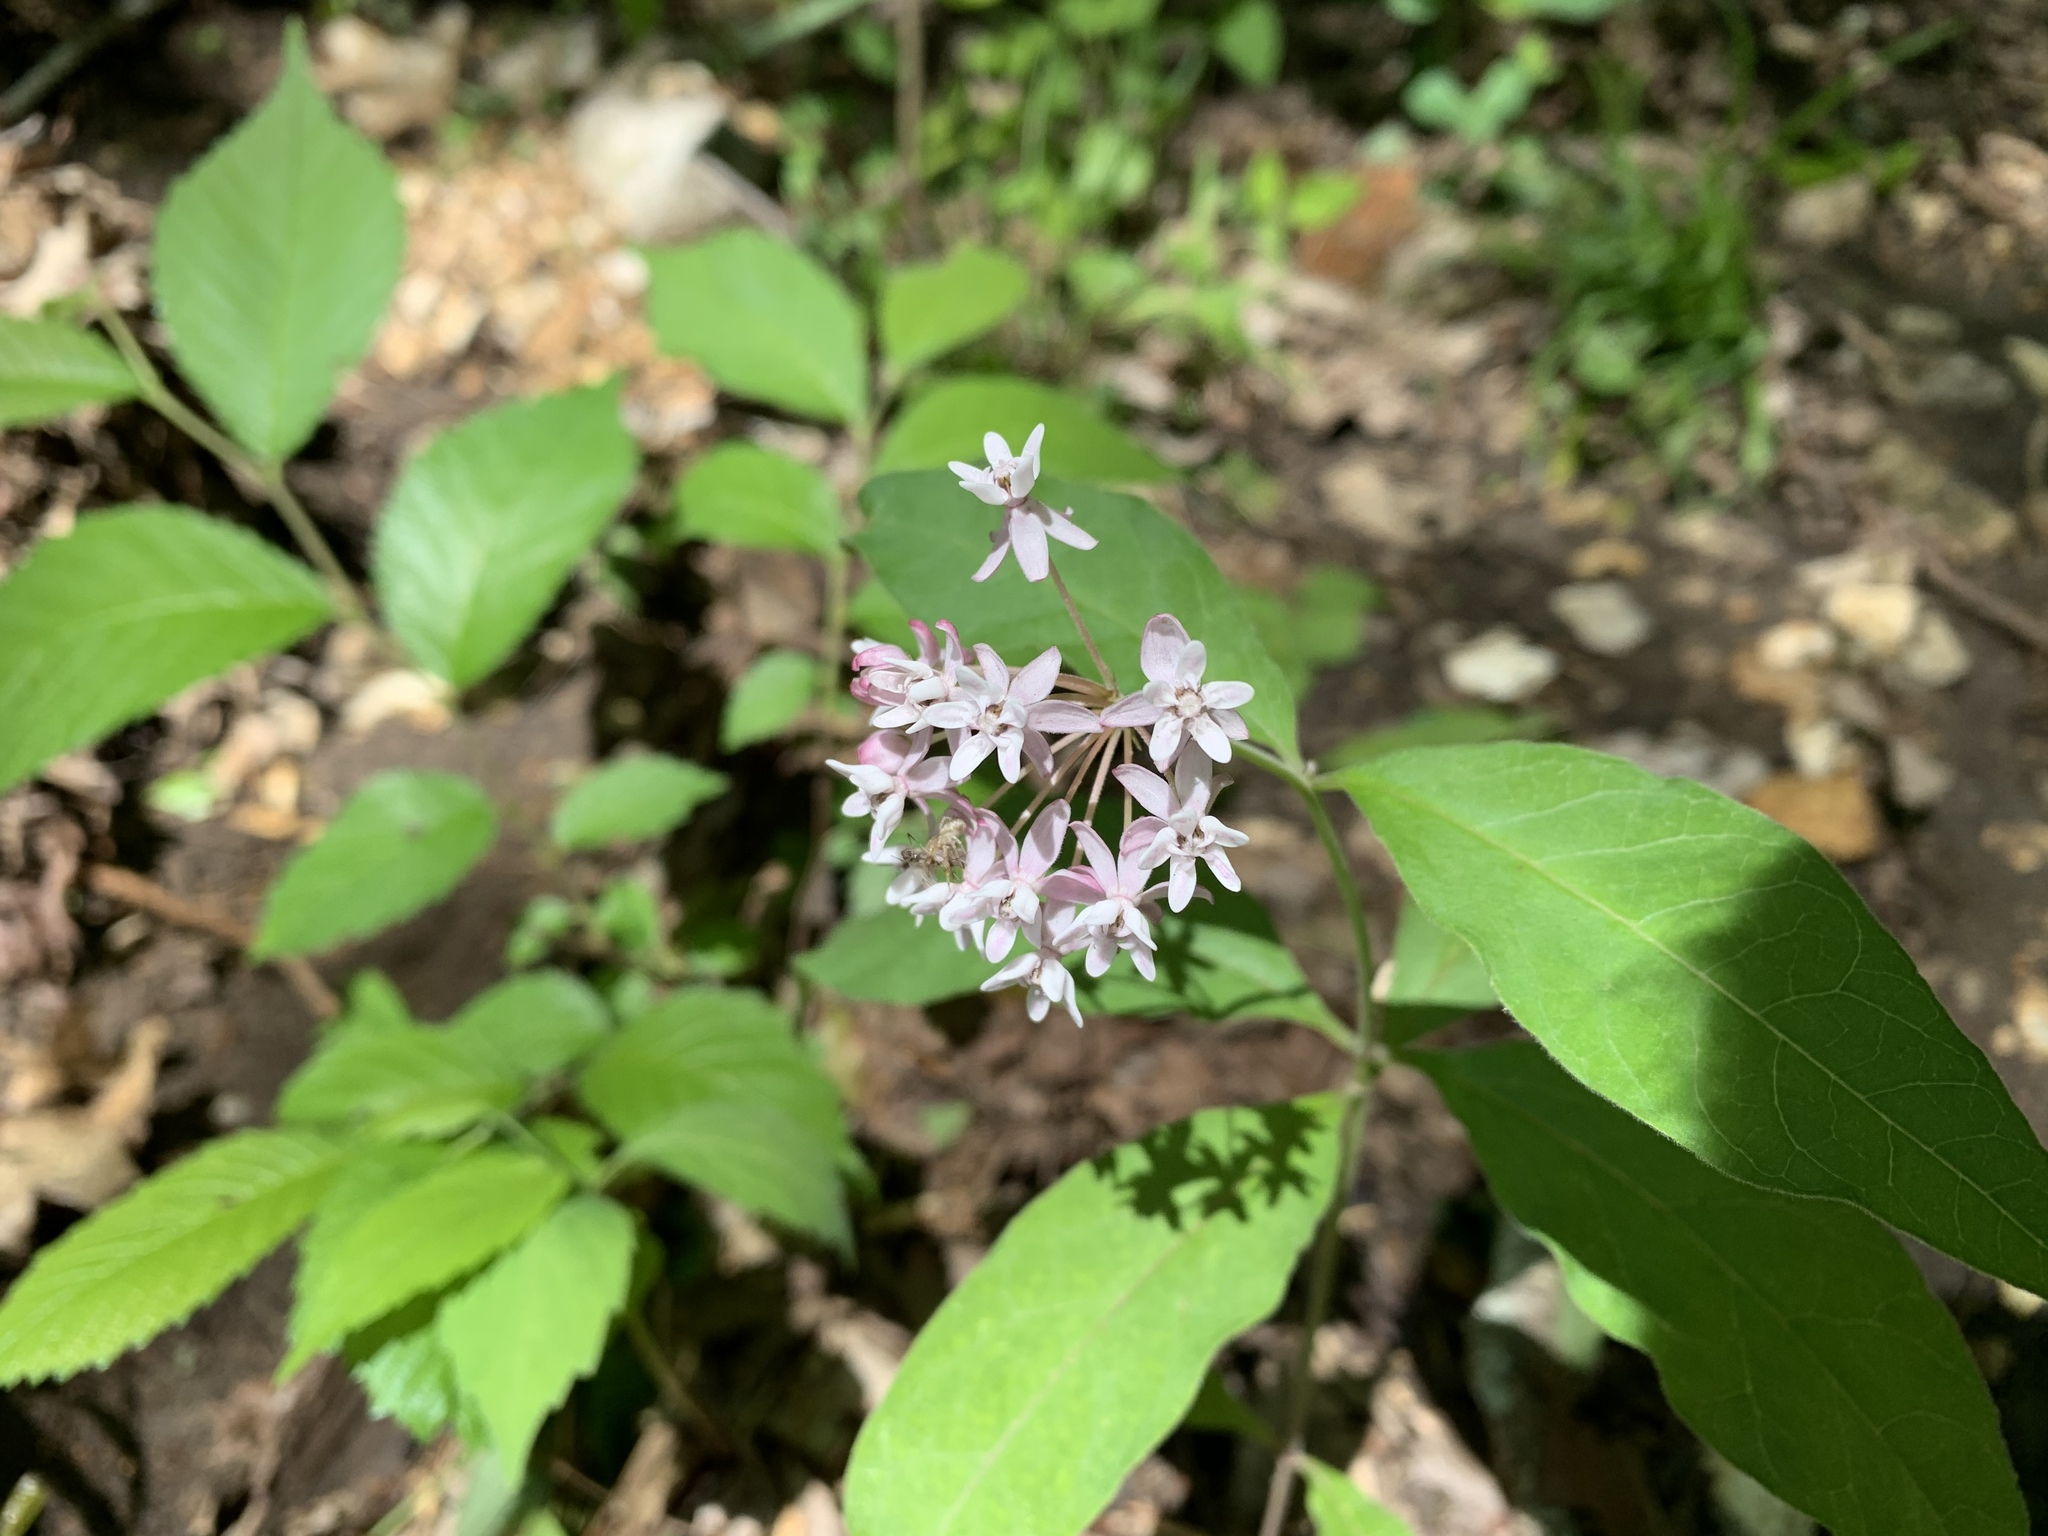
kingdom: Plantae
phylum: Tracheophyta
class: Magnoliopsida
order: Gentianales
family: Apocynaceae
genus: Asclepias
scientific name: Asclepias quadrifolia
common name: Whorled milkweed
